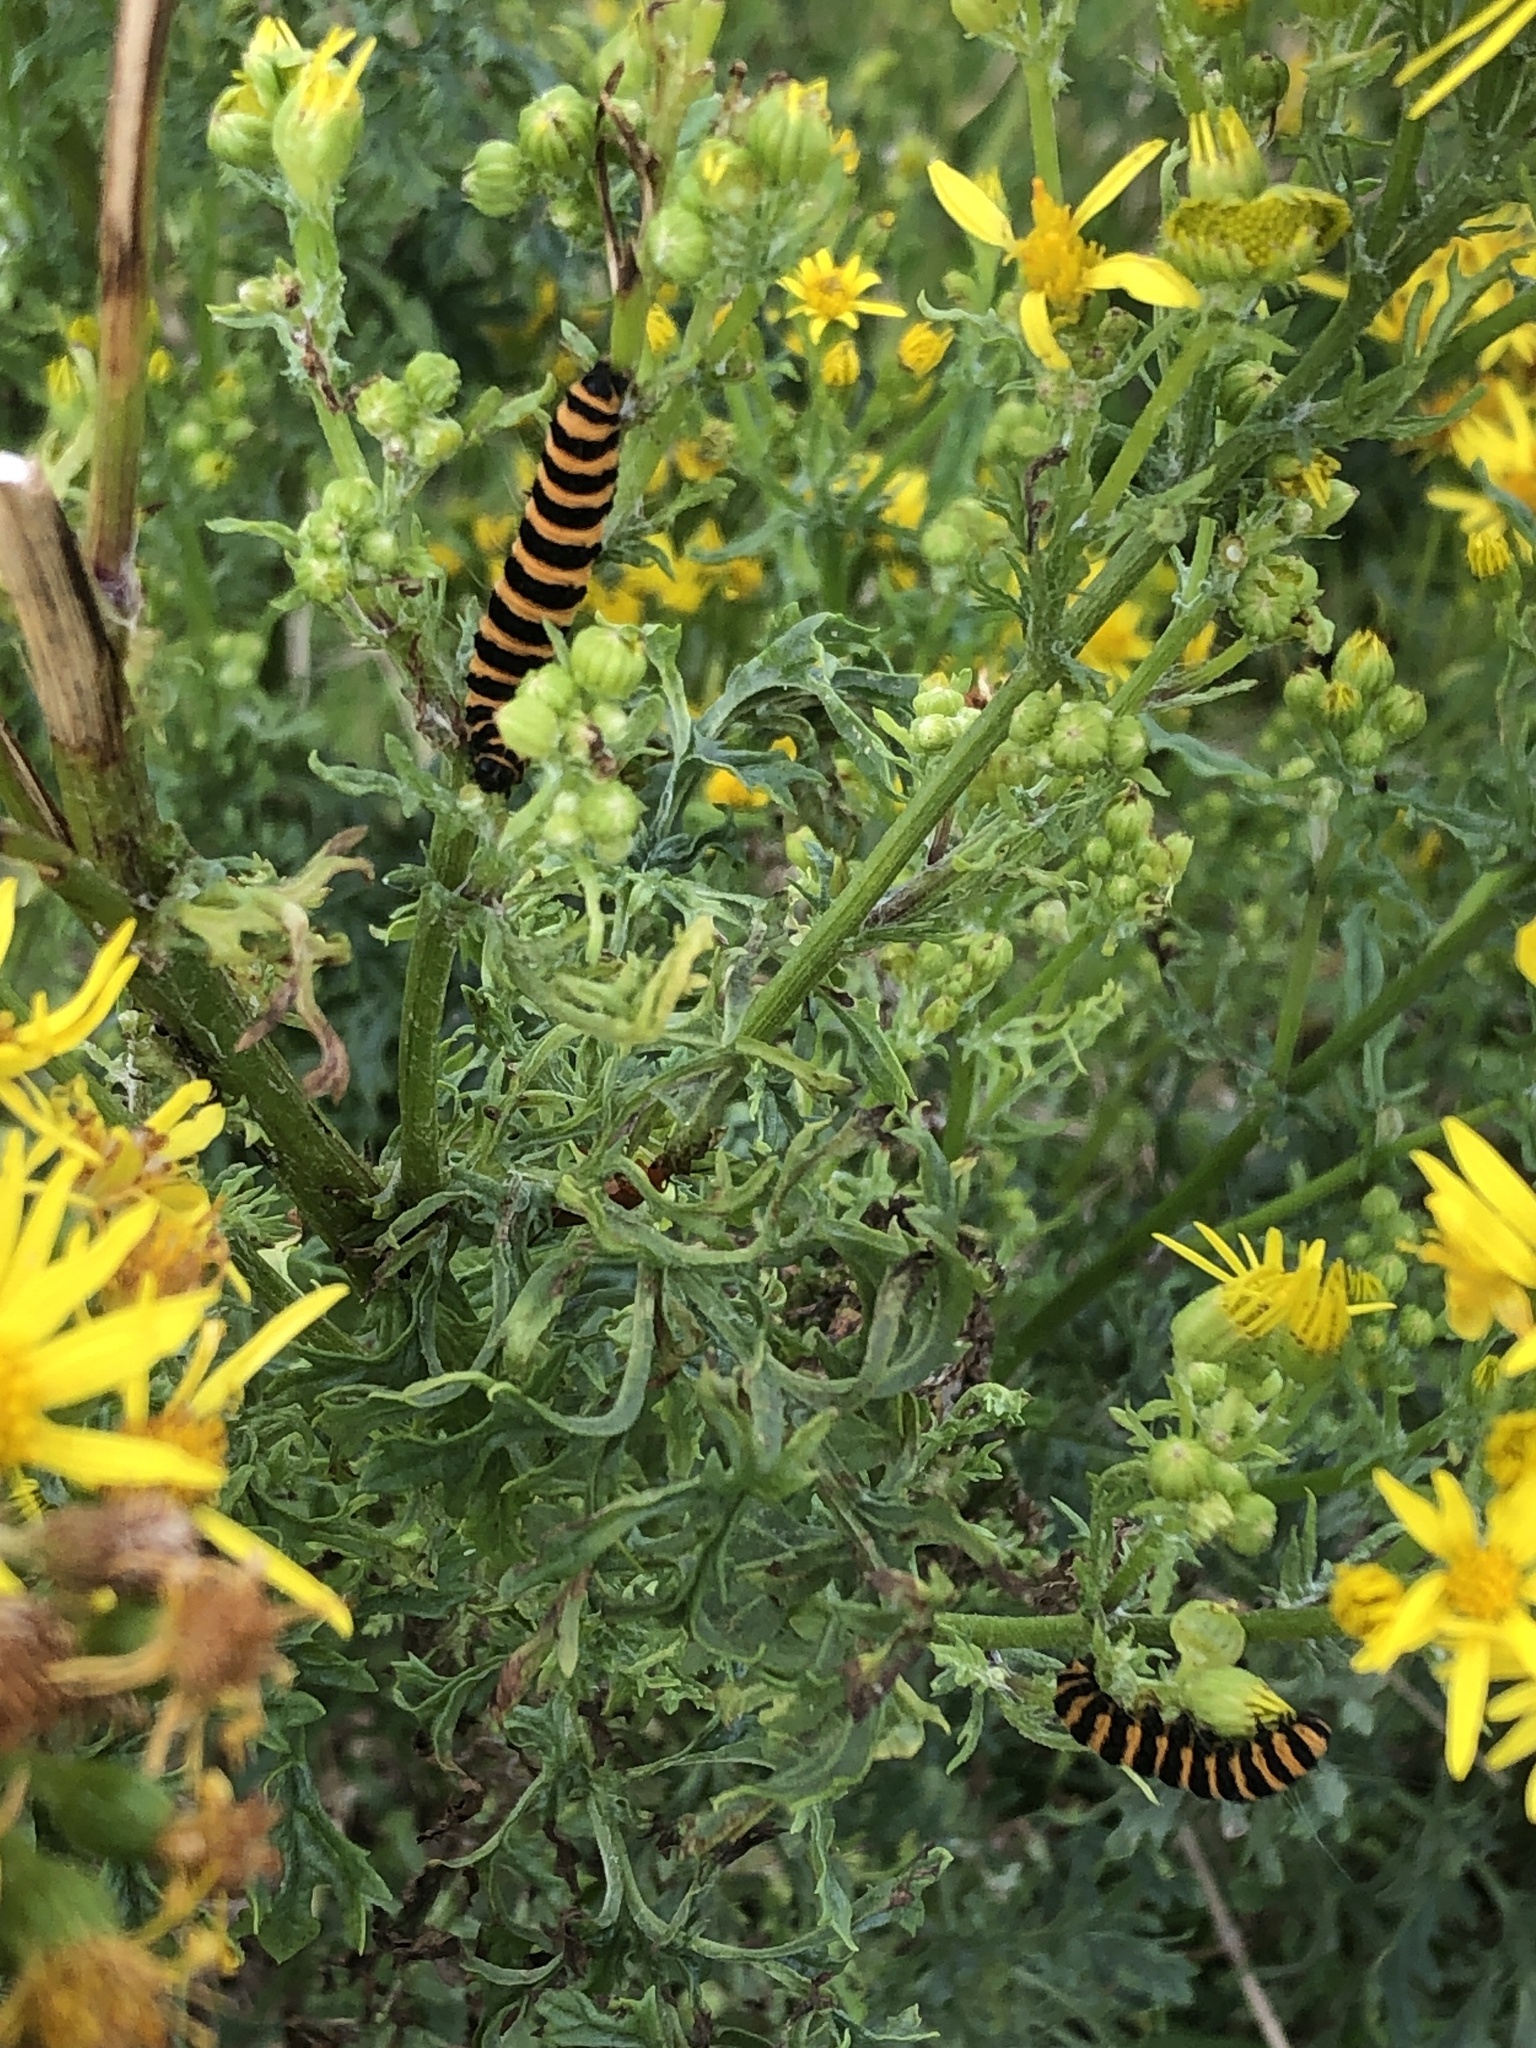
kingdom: Animalia
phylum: Arthropoda
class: Insecta
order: Lepidoptera
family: Erebidae
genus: Tyria
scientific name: Tyria jacobaeae
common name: Cinnabar
